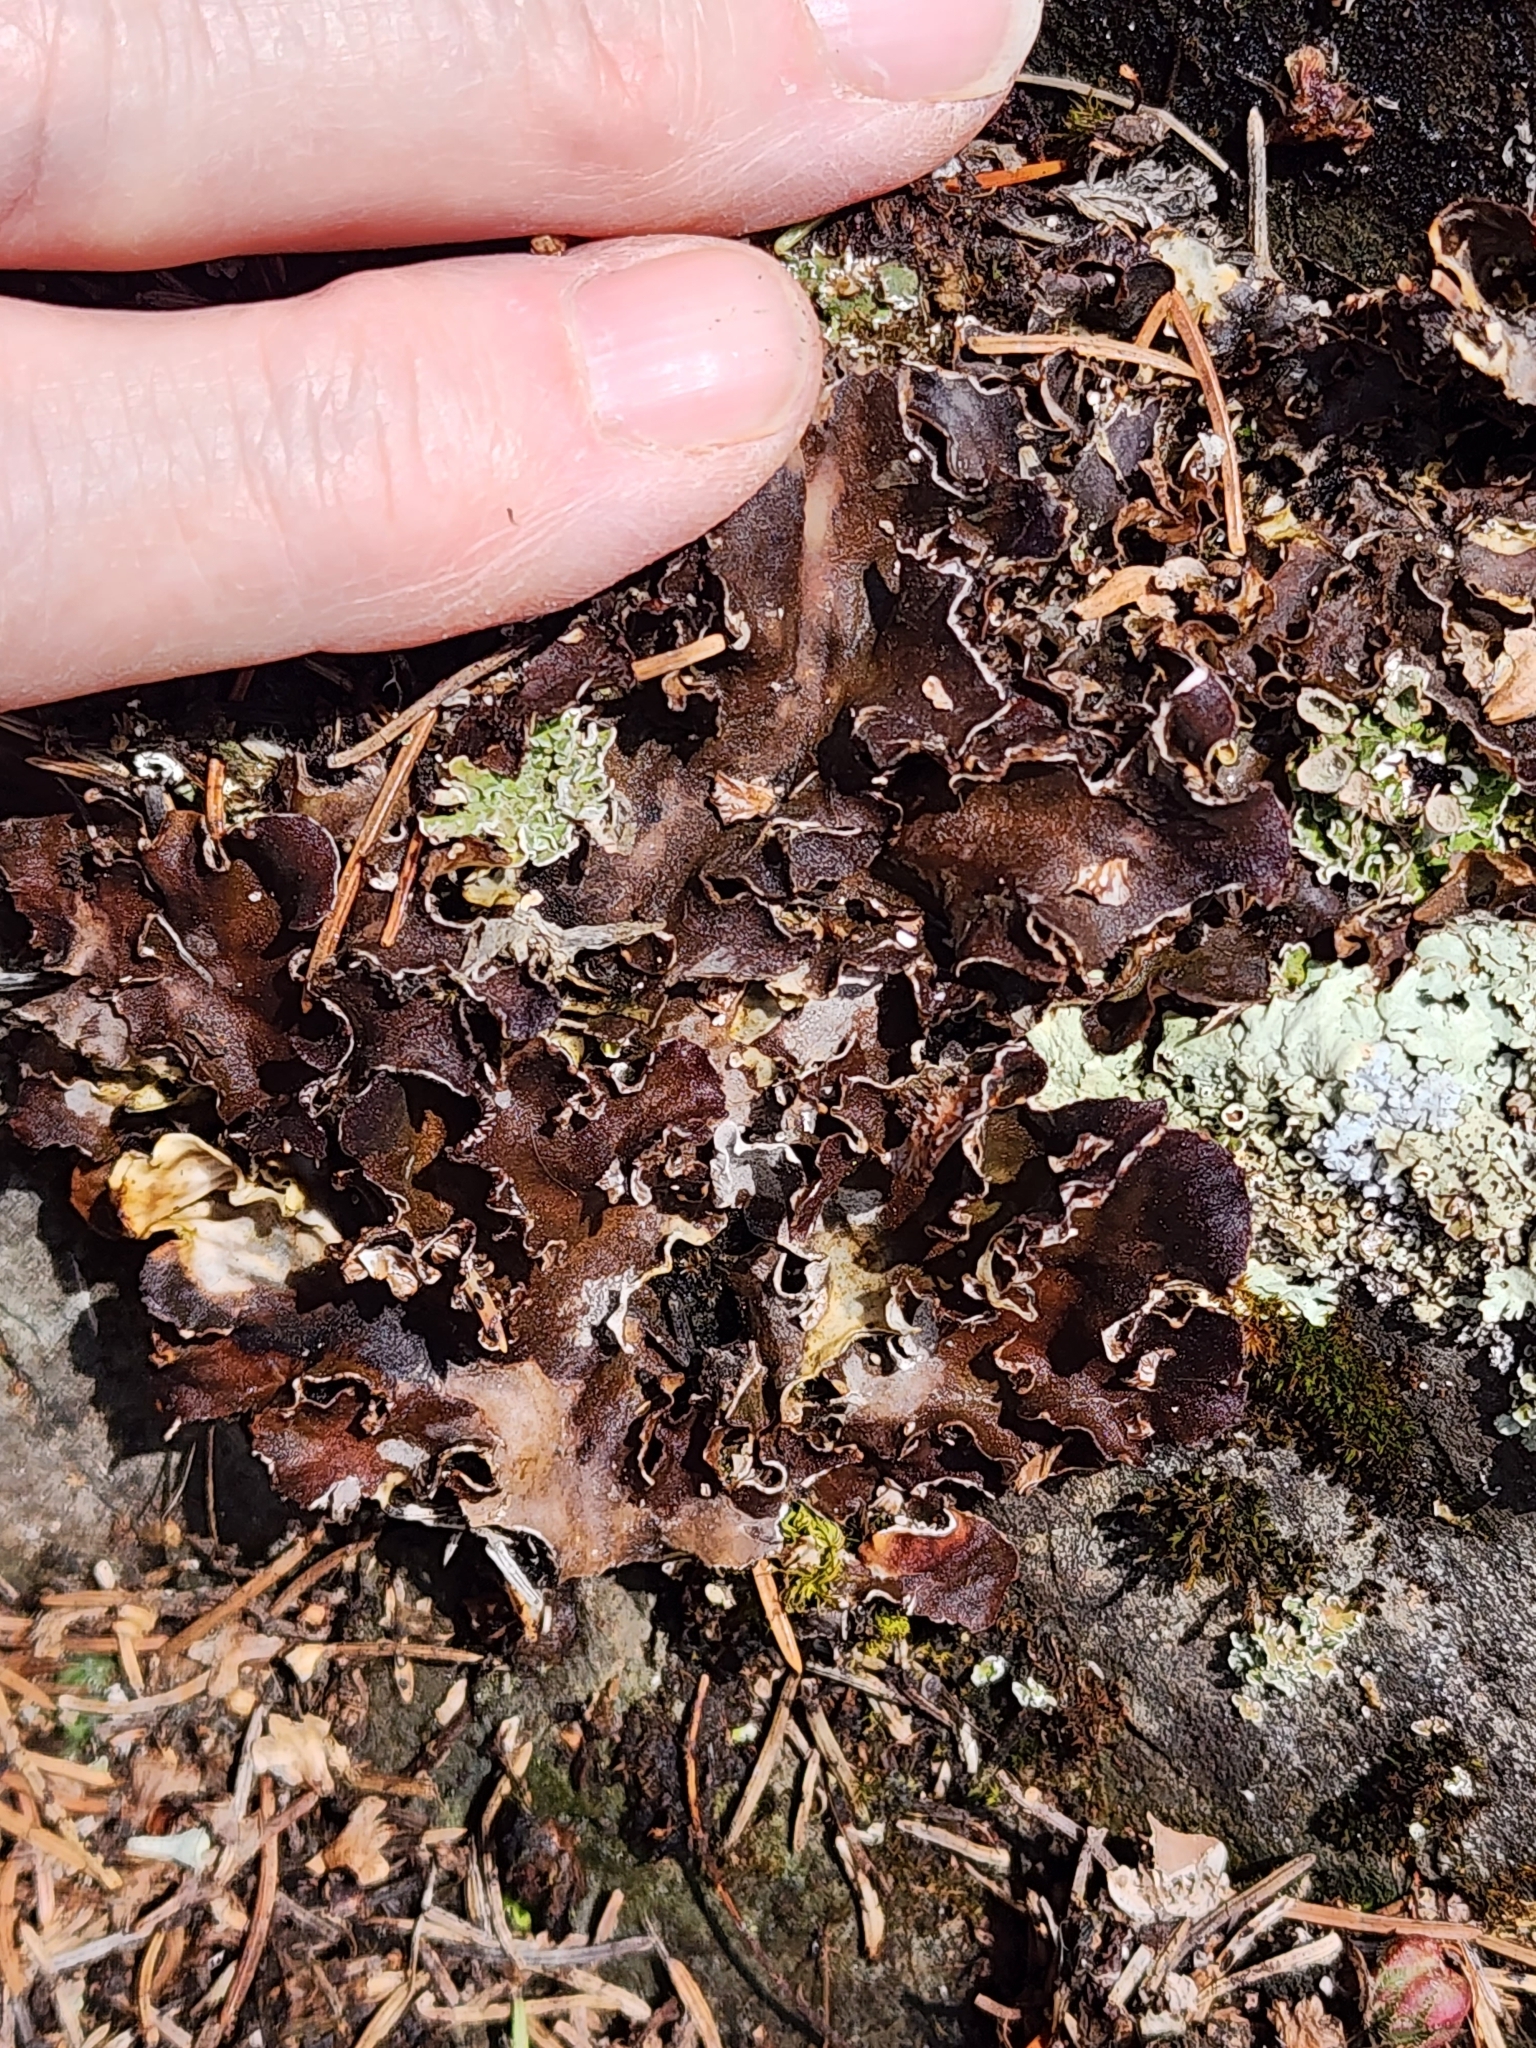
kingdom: Fungi
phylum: Ascomycota
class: Lecanoromycetes
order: Peltigerales
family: Peltigeraceae
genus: Peltigera
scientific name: Peltigera rufescens
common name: Field dog lichen
